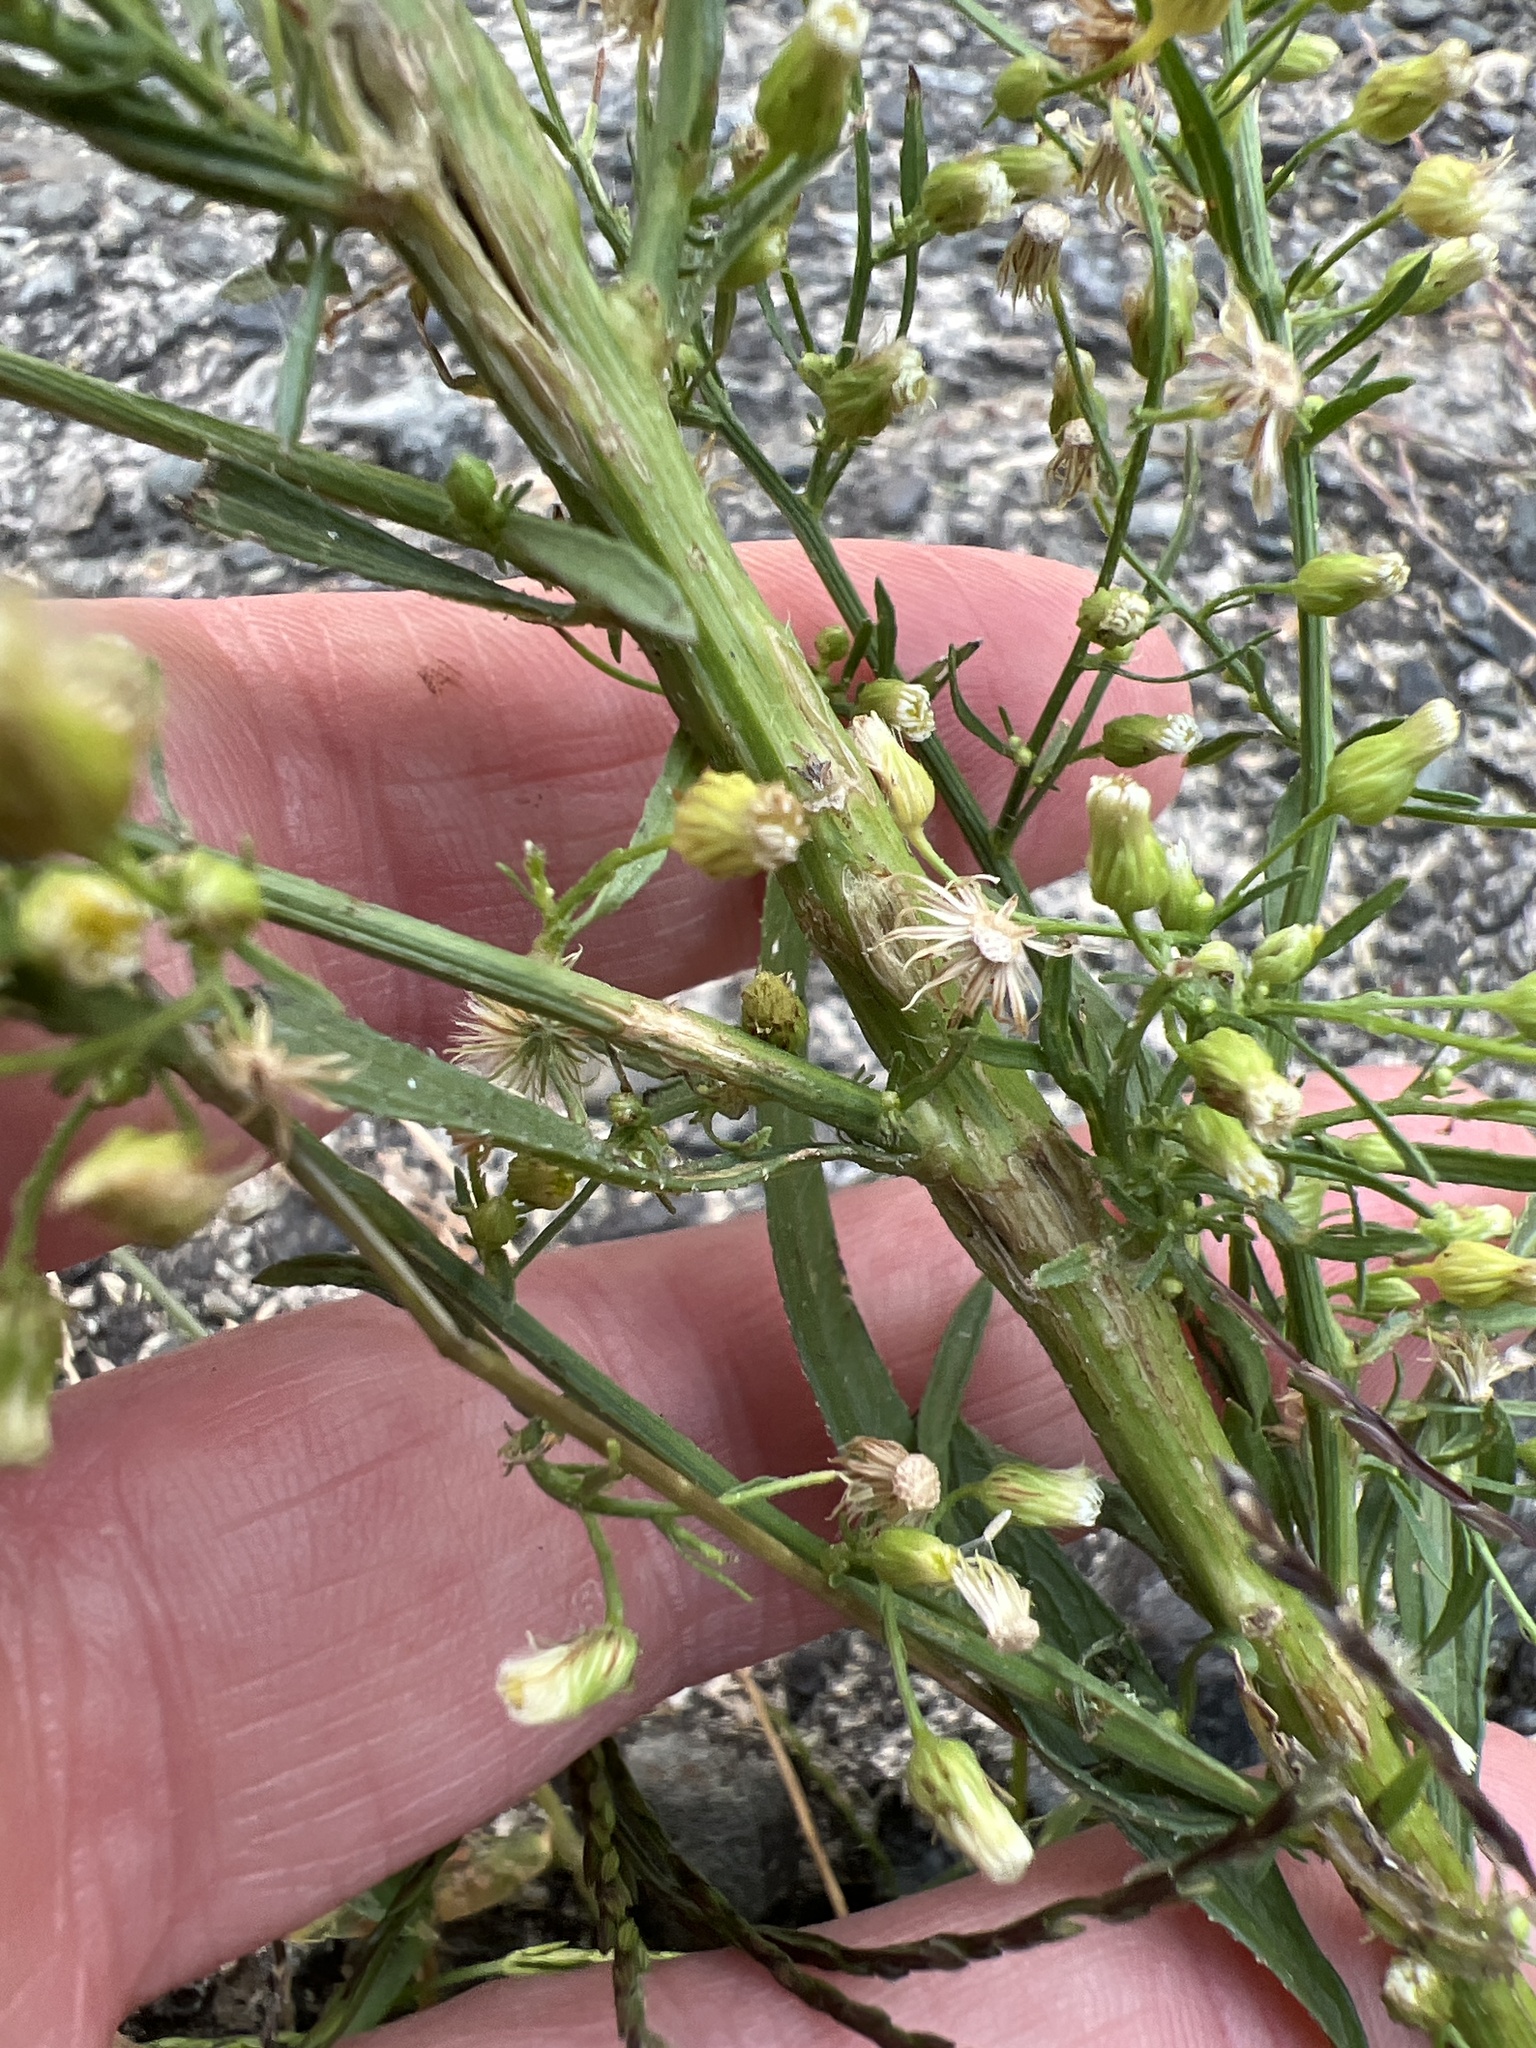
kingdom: Plantae
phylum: Tracheophyta
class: Magnoliopsida
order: Asterales
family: Asteraceae
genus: Erigeron
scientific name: Erigeron canadensis
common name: Canadian fleabane
